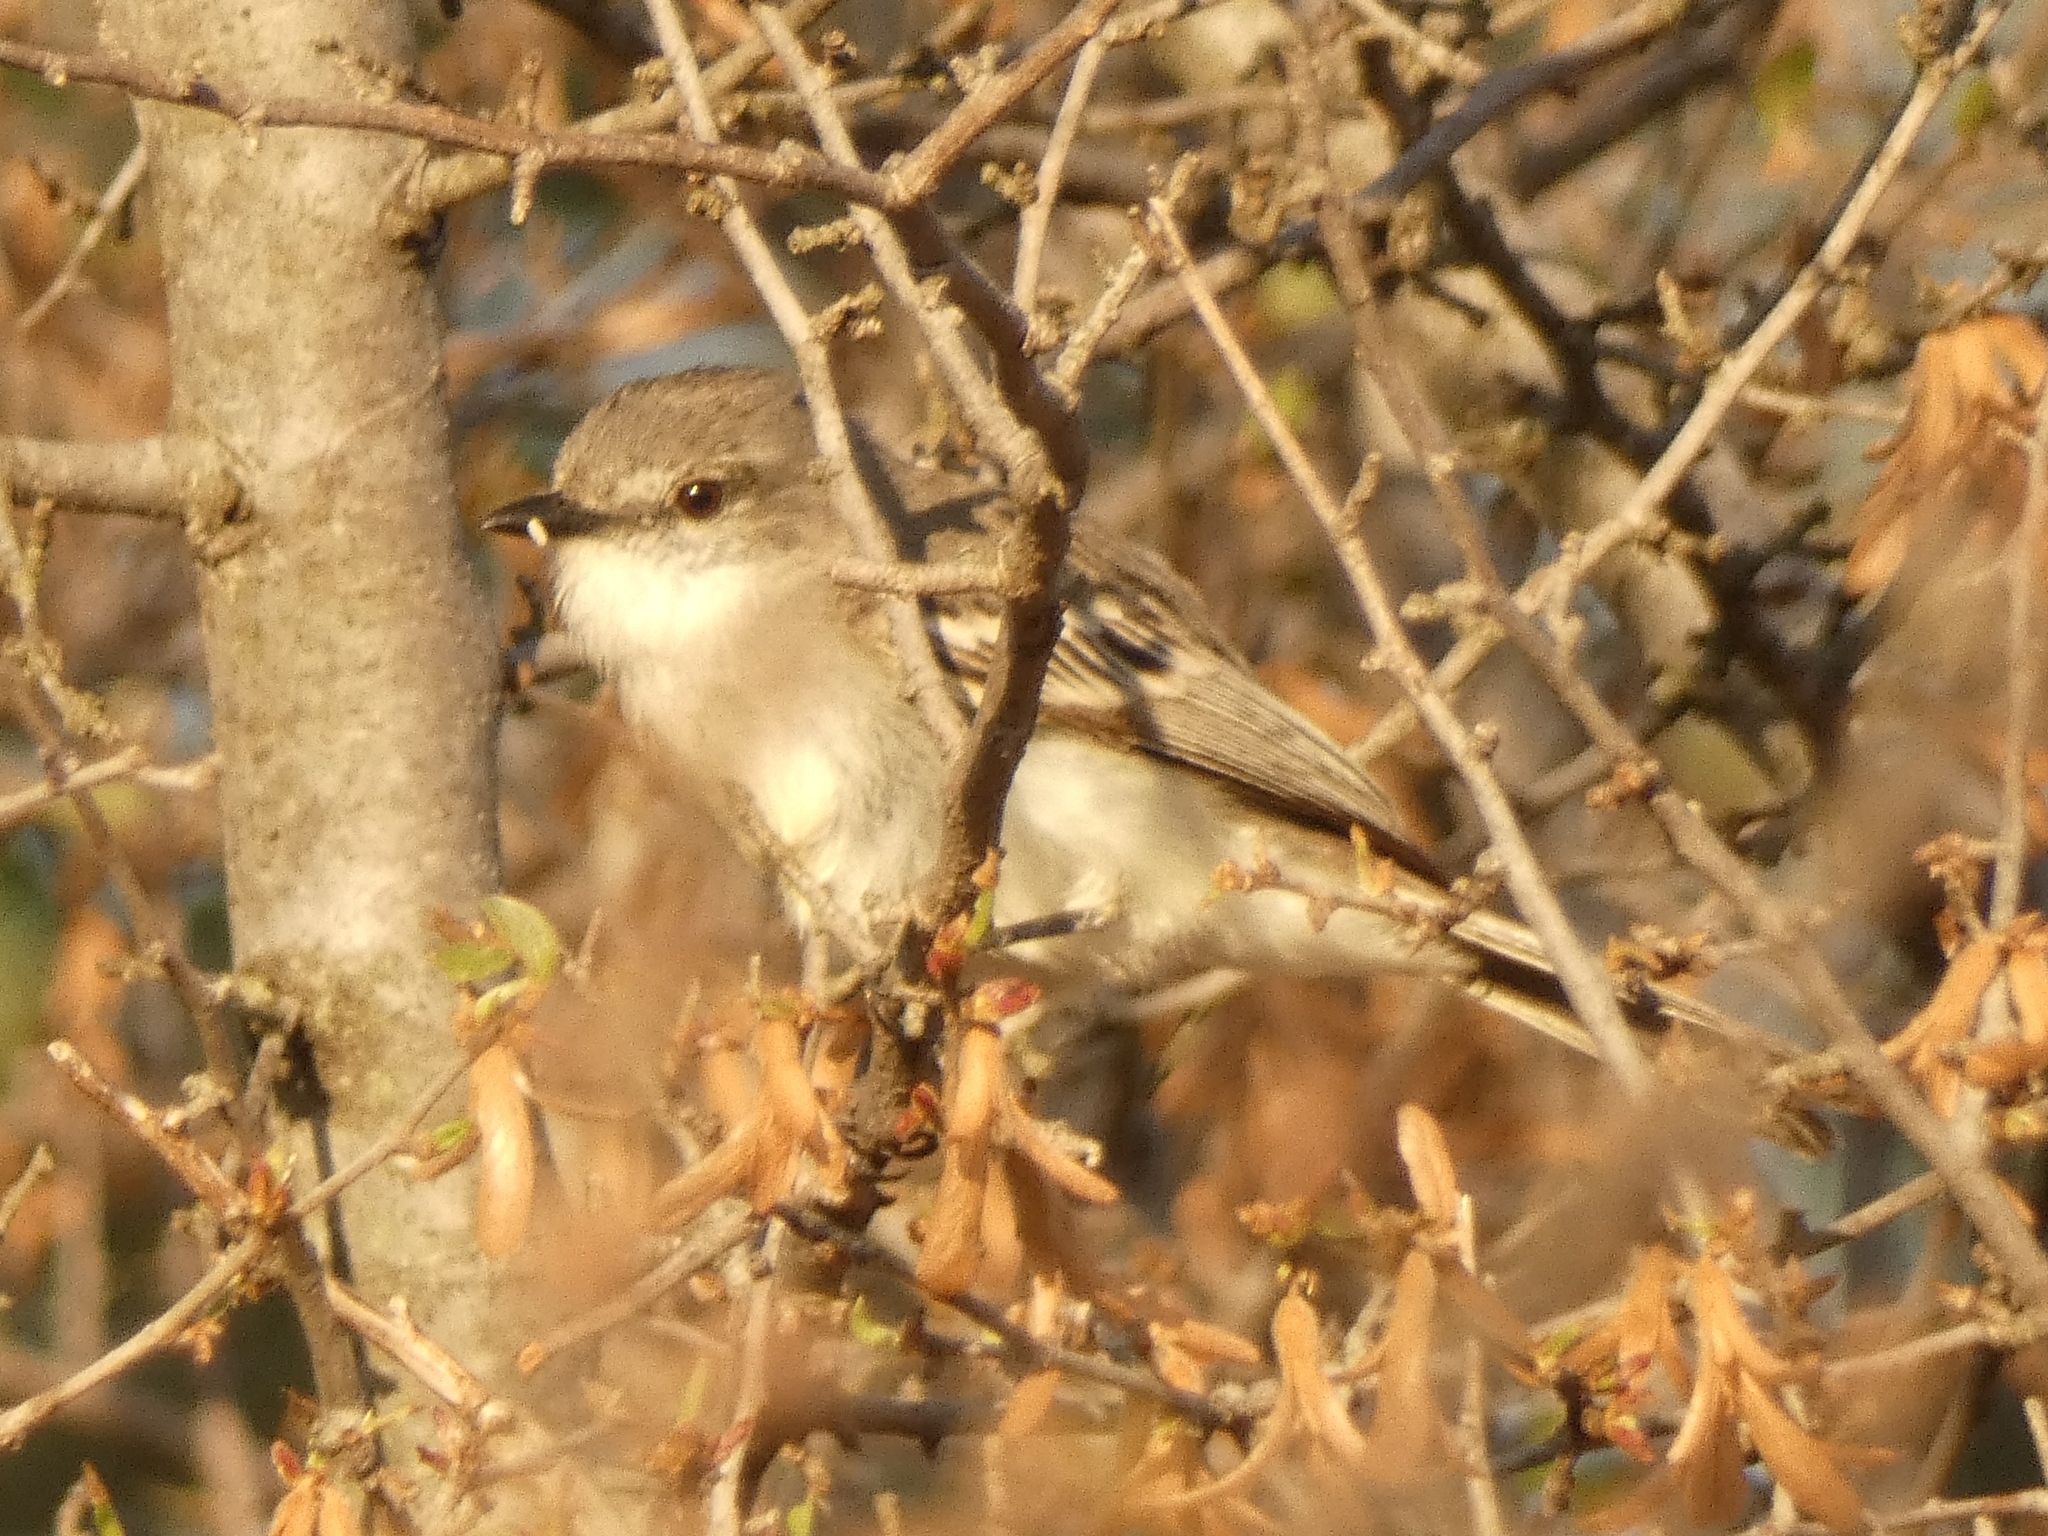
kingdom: Animalia
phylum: Chordata
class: Aves
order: Passeriformes
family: Tyrannidae
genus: Suiriri
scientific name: Suiriri suiriri
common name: Suiriri flycatcher
